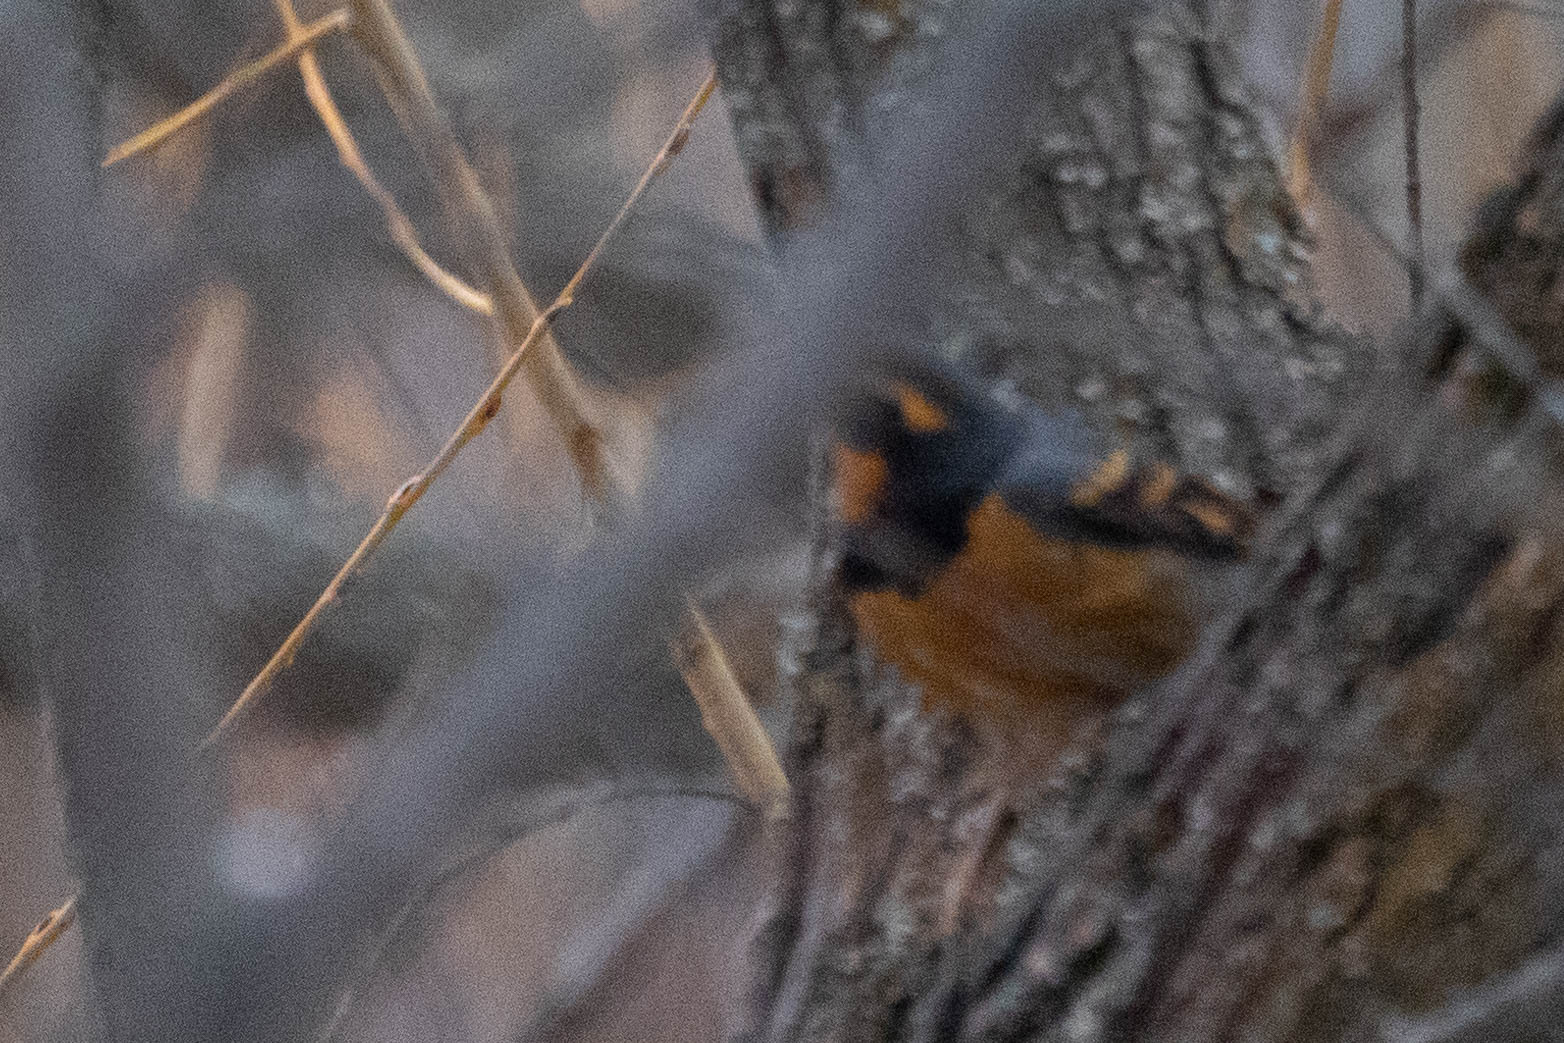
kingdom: Animalia
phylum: Chordata
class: Aves
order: Passeriformes
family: Turdidae
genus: Ixoreus
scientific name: Ixoreus naevius
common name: Varied thrush
